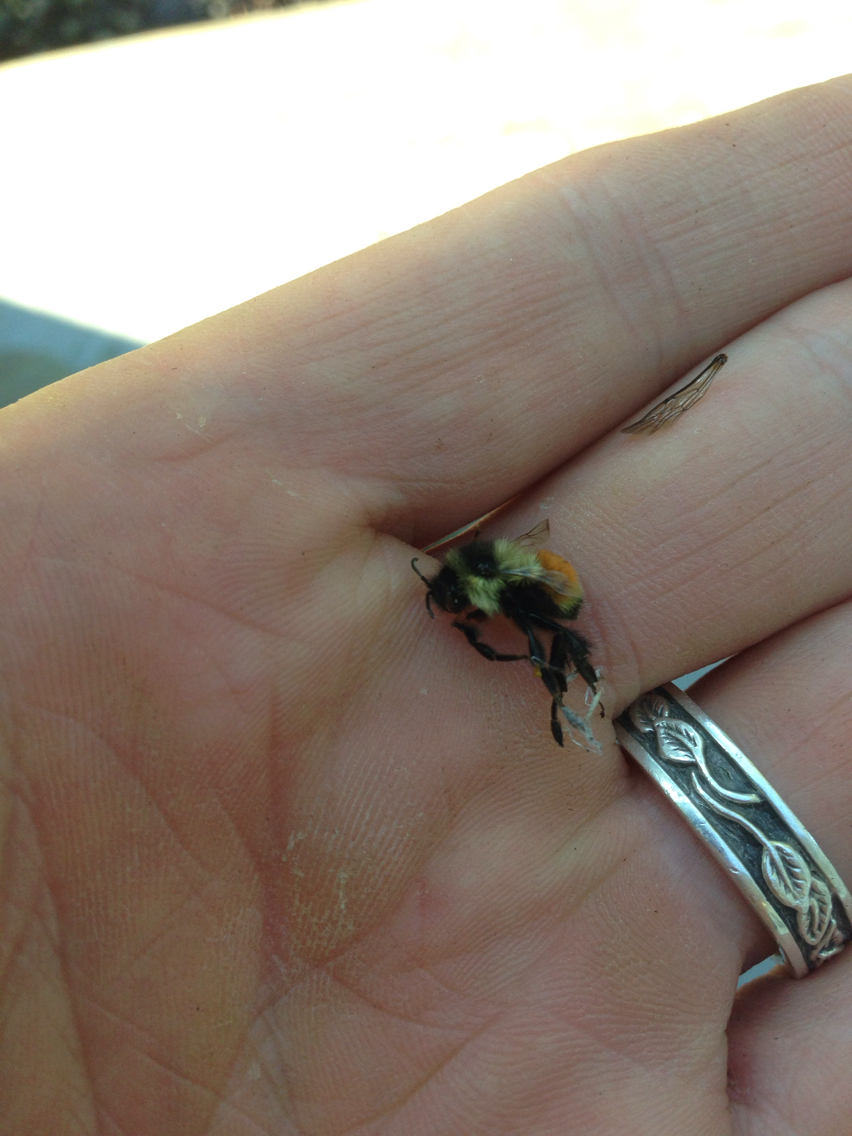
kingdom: Animalia
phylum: Arthropoda
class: Insecta
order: Hymenoptera
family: Apidae
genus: Bombus
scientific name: Bombus ternarius
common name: Tri-colored bumble bee
